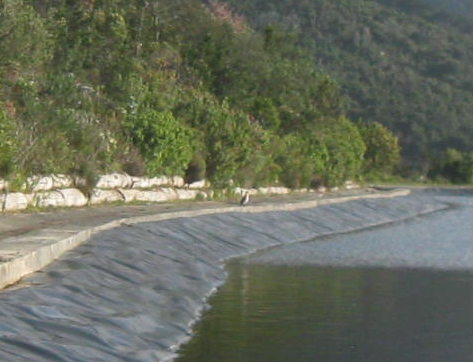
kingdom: Animalia
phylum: Chordata
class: Aves
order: Suliformes
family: Phalacrocoracidae
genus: Phalacrocorax
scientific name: Phalacrocorax carbo
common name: Great cormorant
